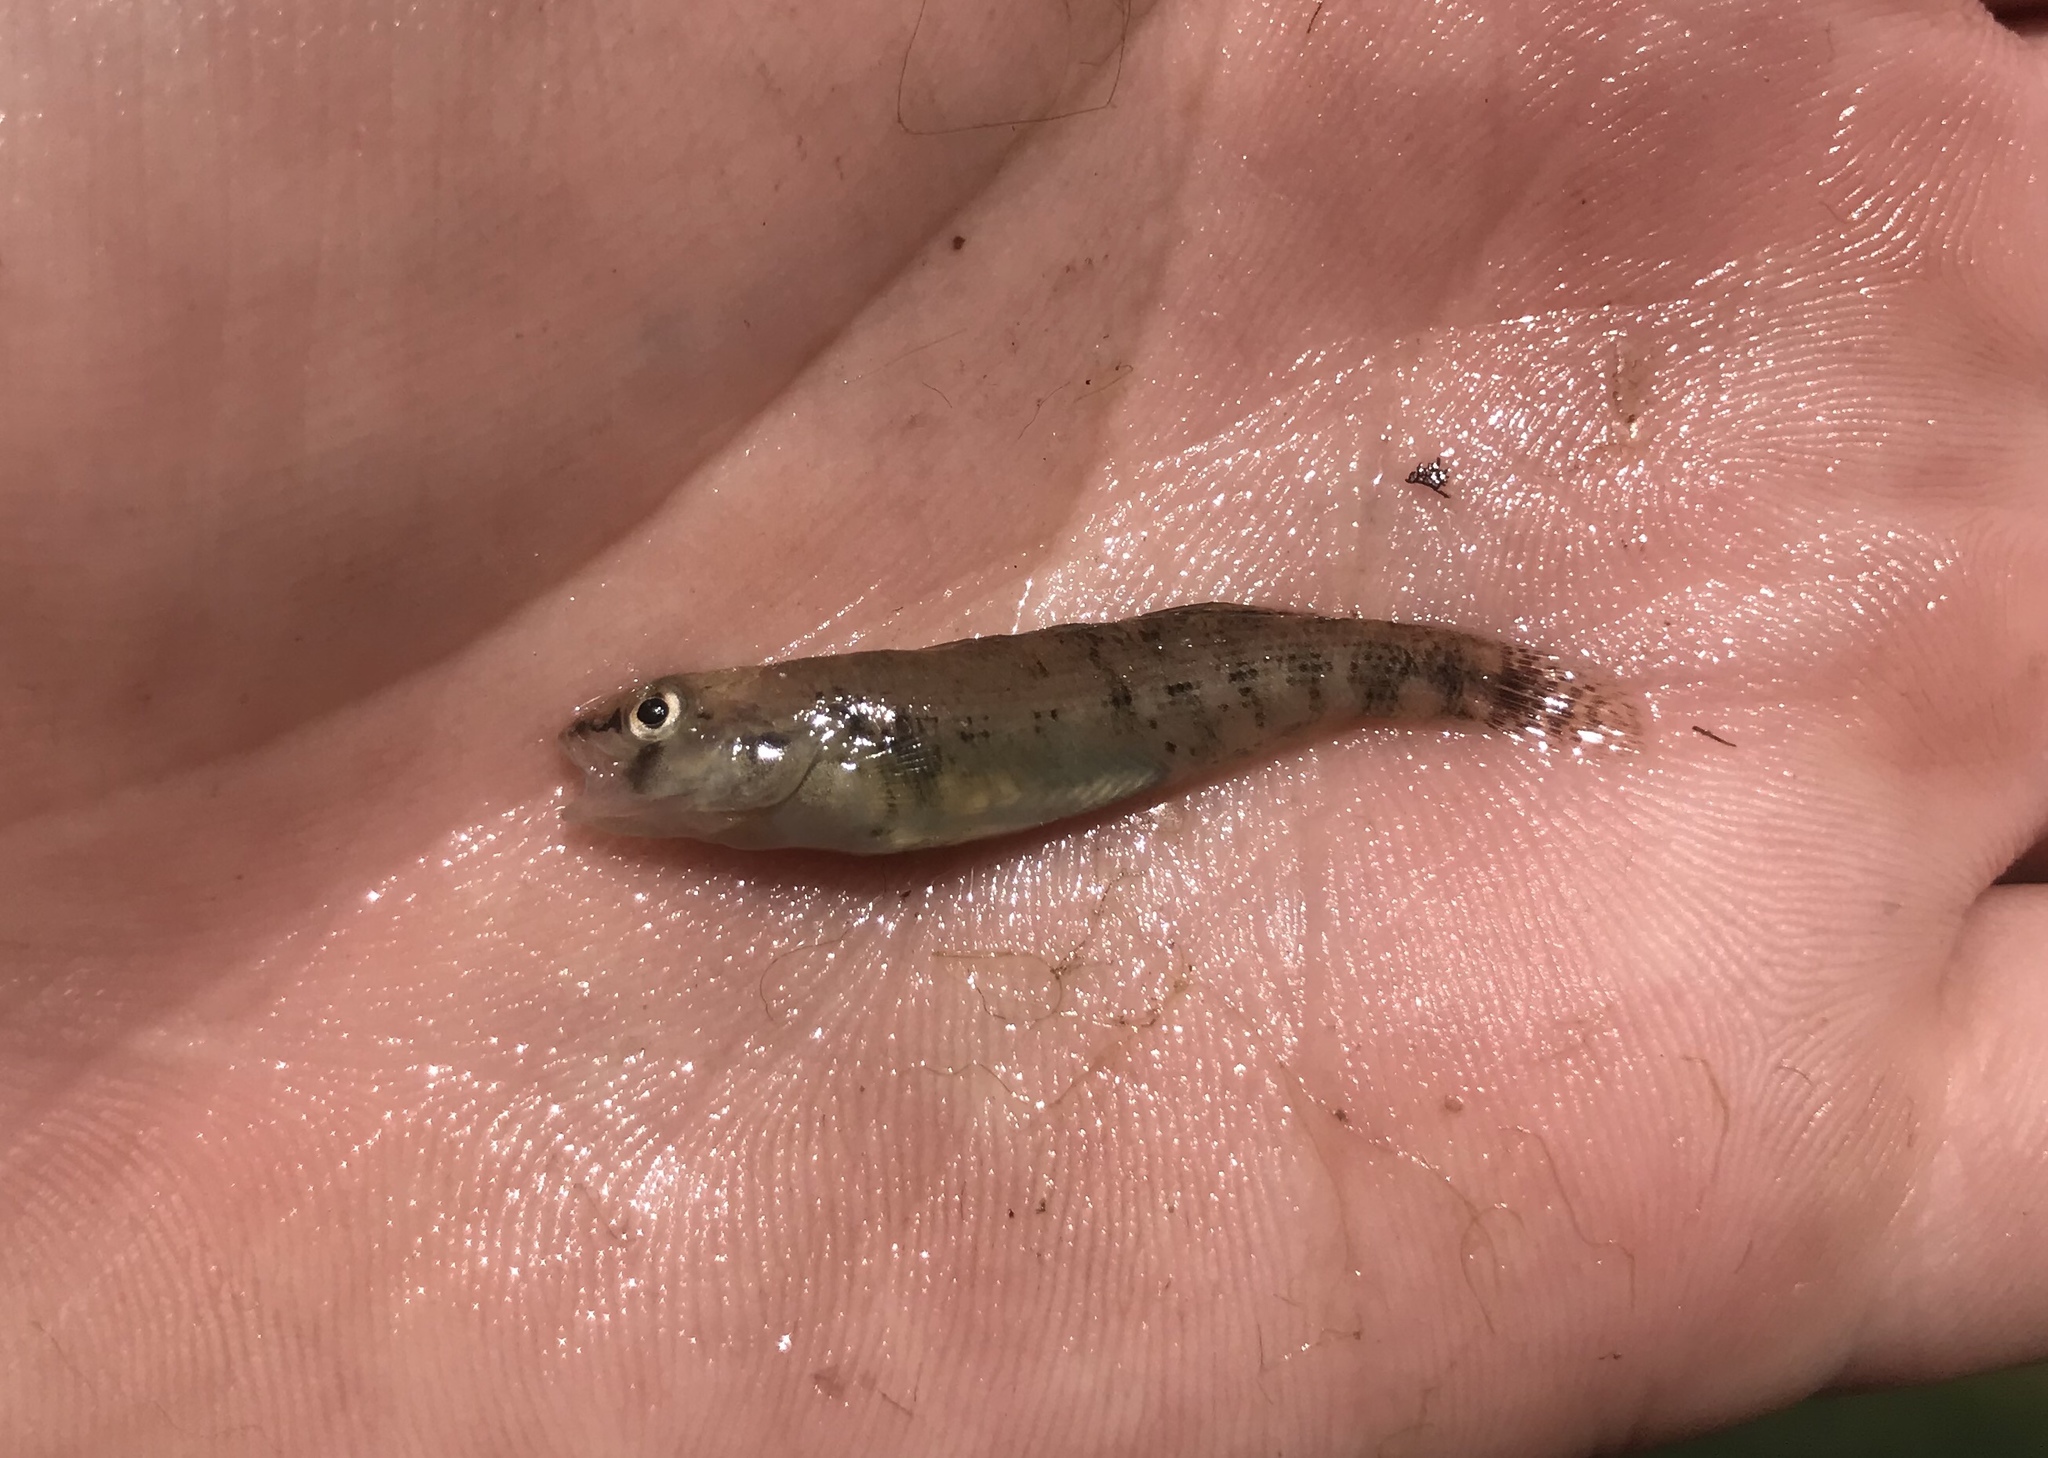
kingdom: Animalia
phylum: Chordata
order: Perciformes
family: Percidae
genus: Etheostoma
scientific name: Etheostoma spectabile
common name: Orangethroat darter
